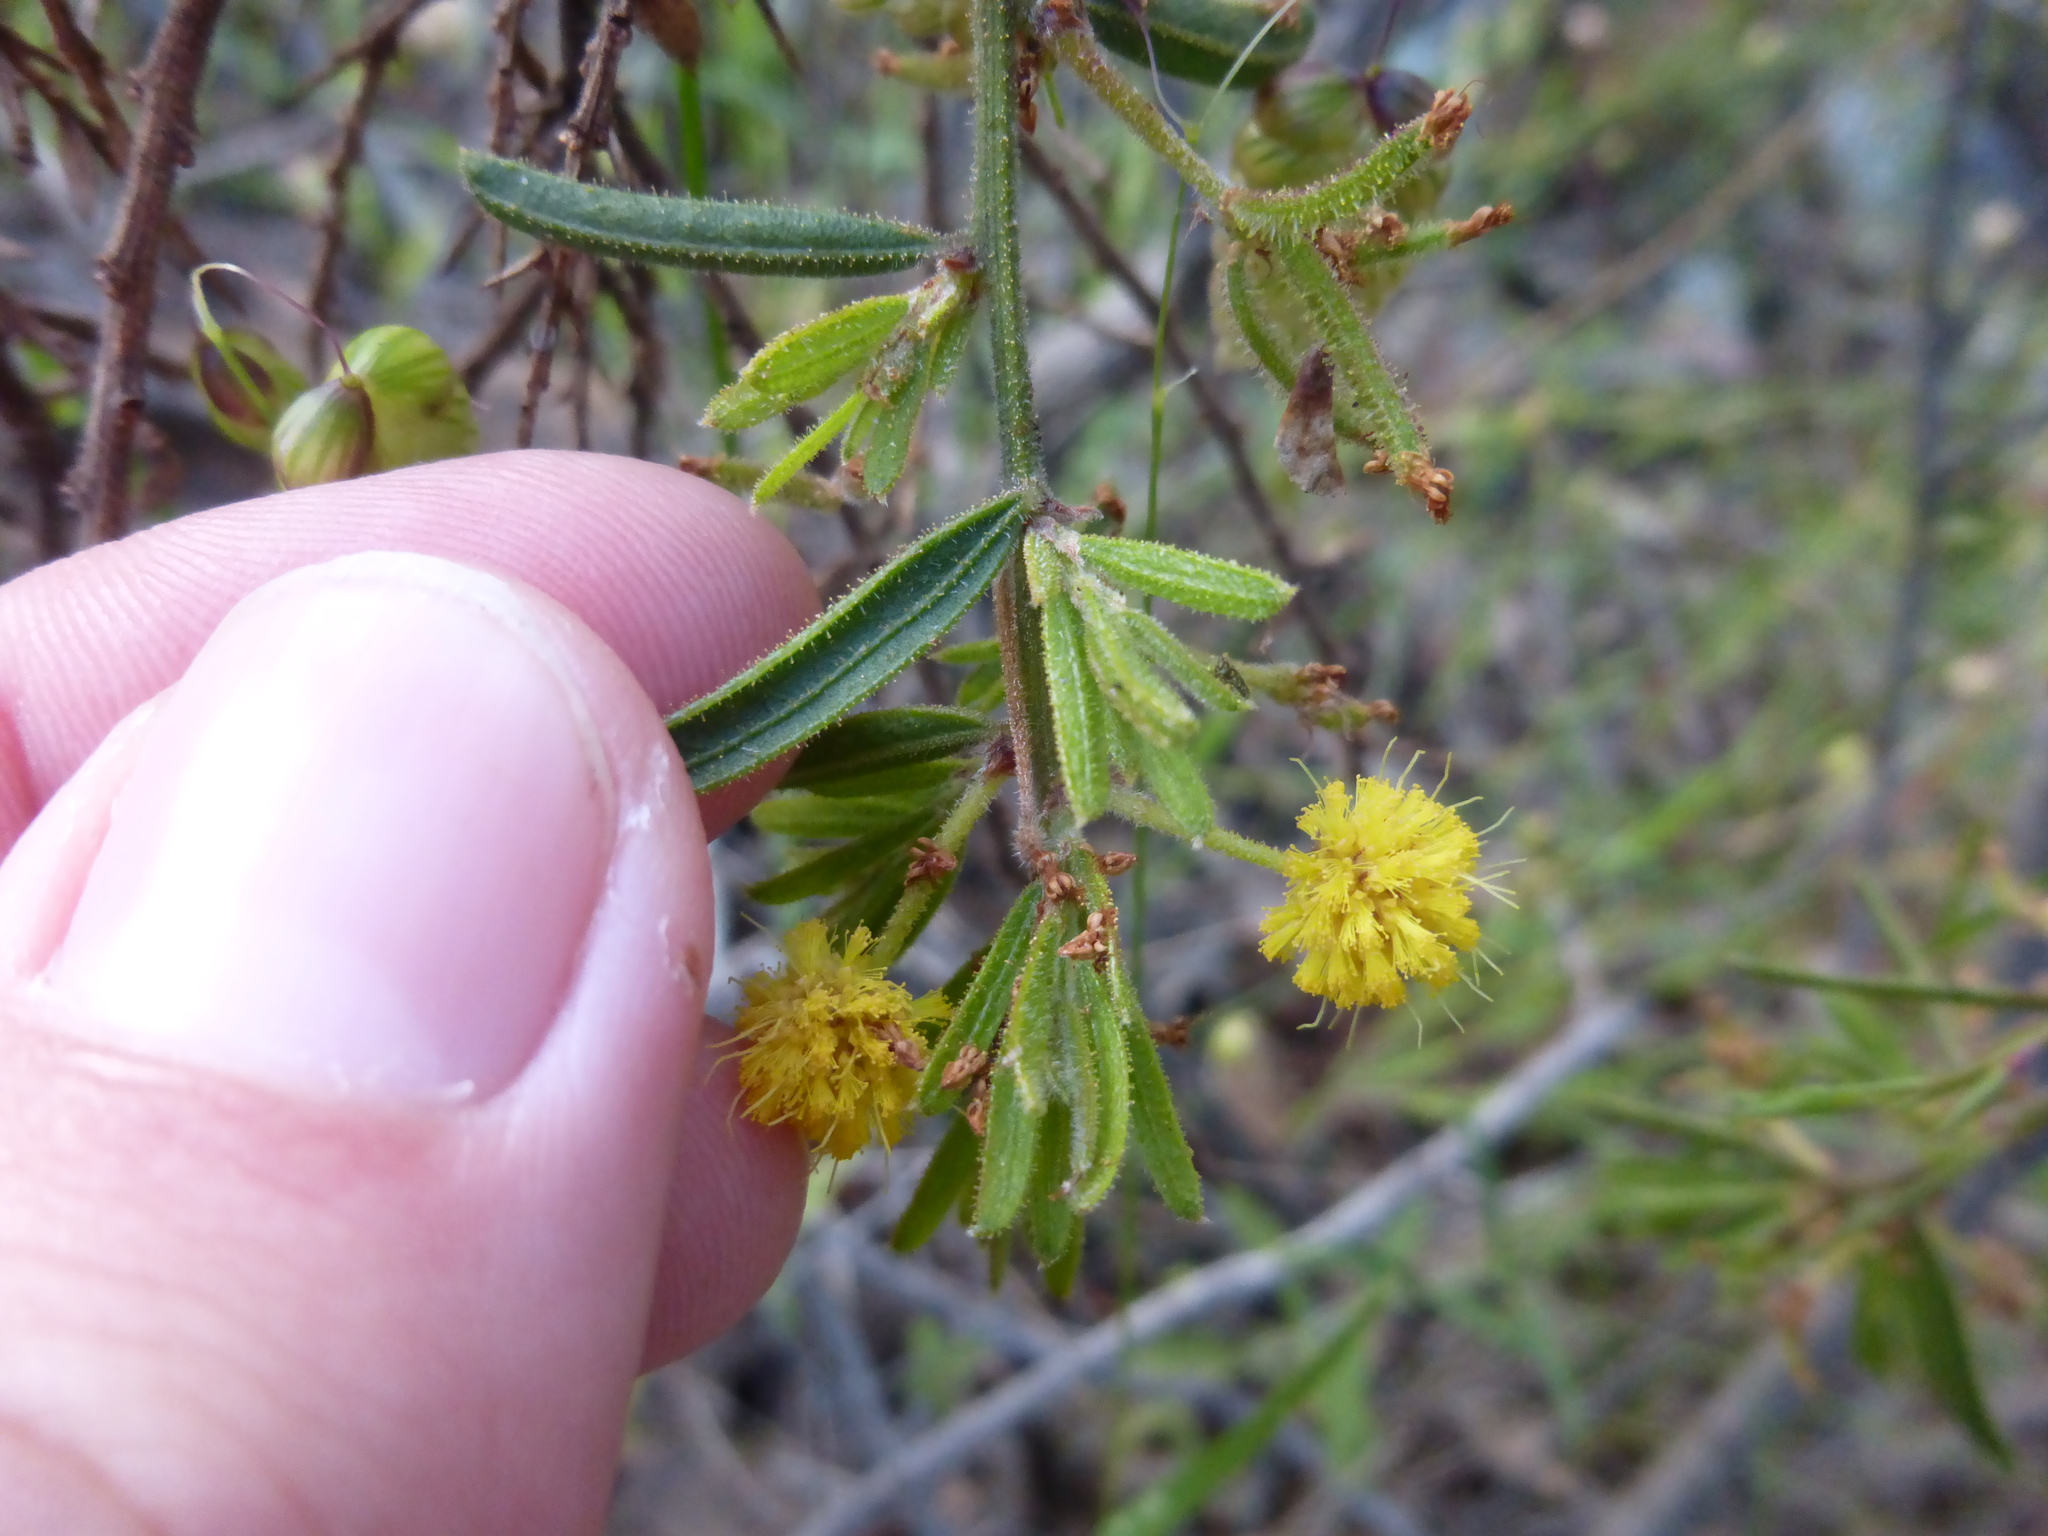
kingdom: Plantae
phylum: Tracheophyta
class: Magnoliopsida
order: Fabales
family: Fabaceae
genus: Acacia
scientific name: Acacia aspera
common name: Rough wattle
